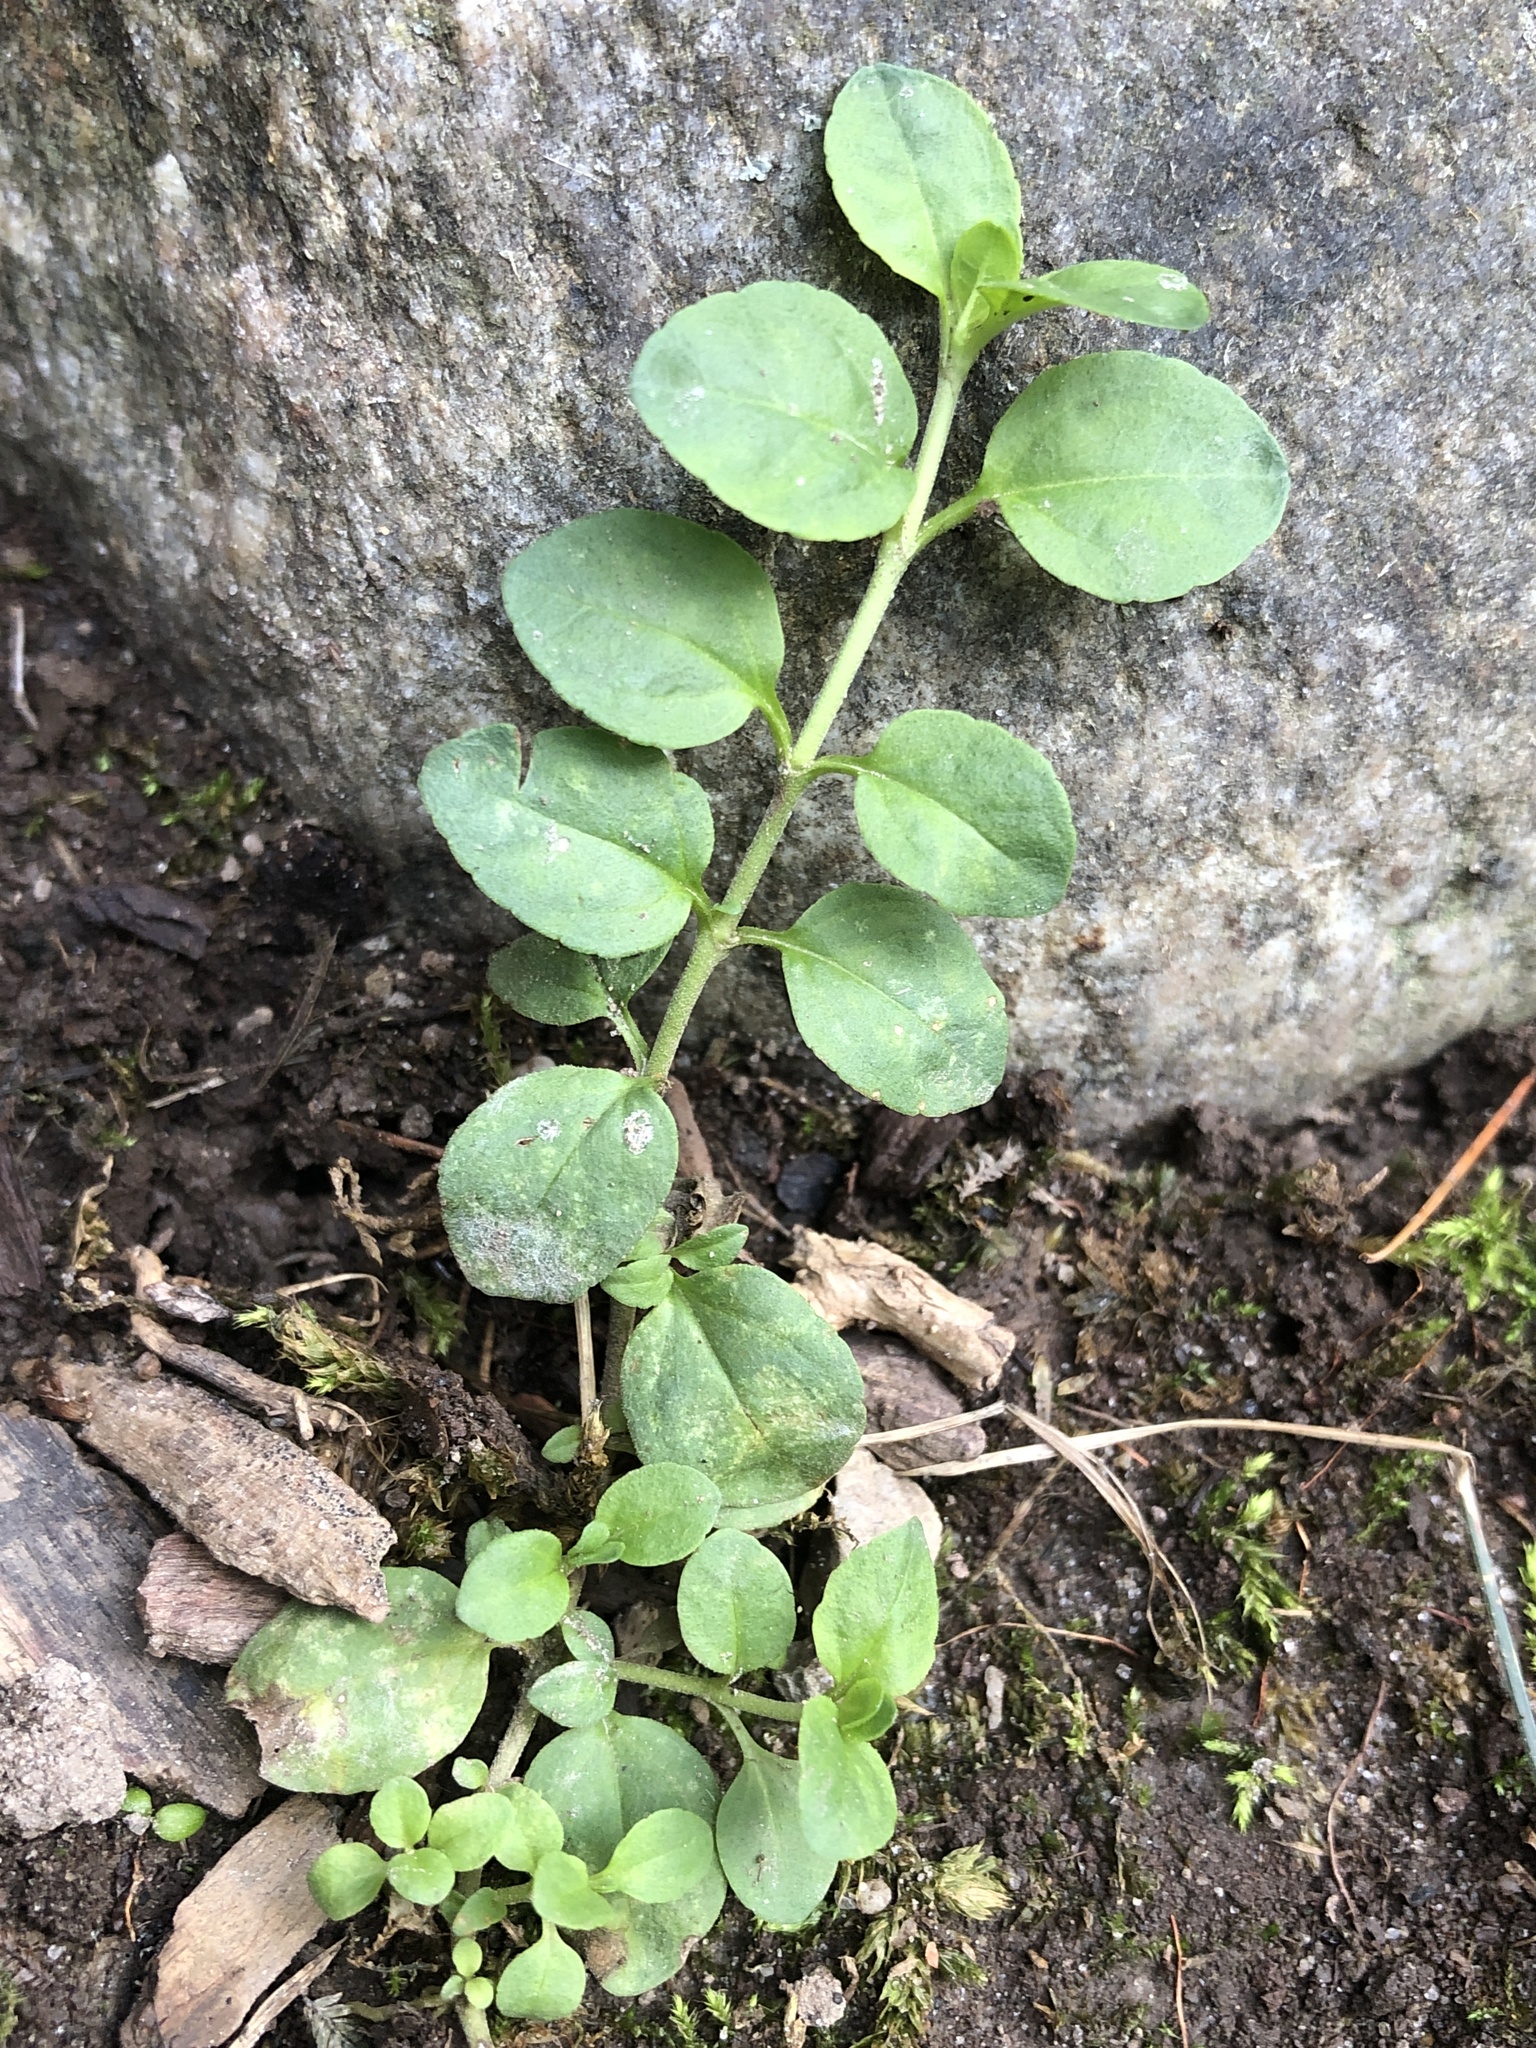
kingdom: Plantae
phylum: Tracheophyta
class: Magnoliopsida
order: Lamiales
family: Plantaginaceae
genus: Veronica
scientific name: Veronica serpyllifolia
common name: Thyme-leaved speedwell
